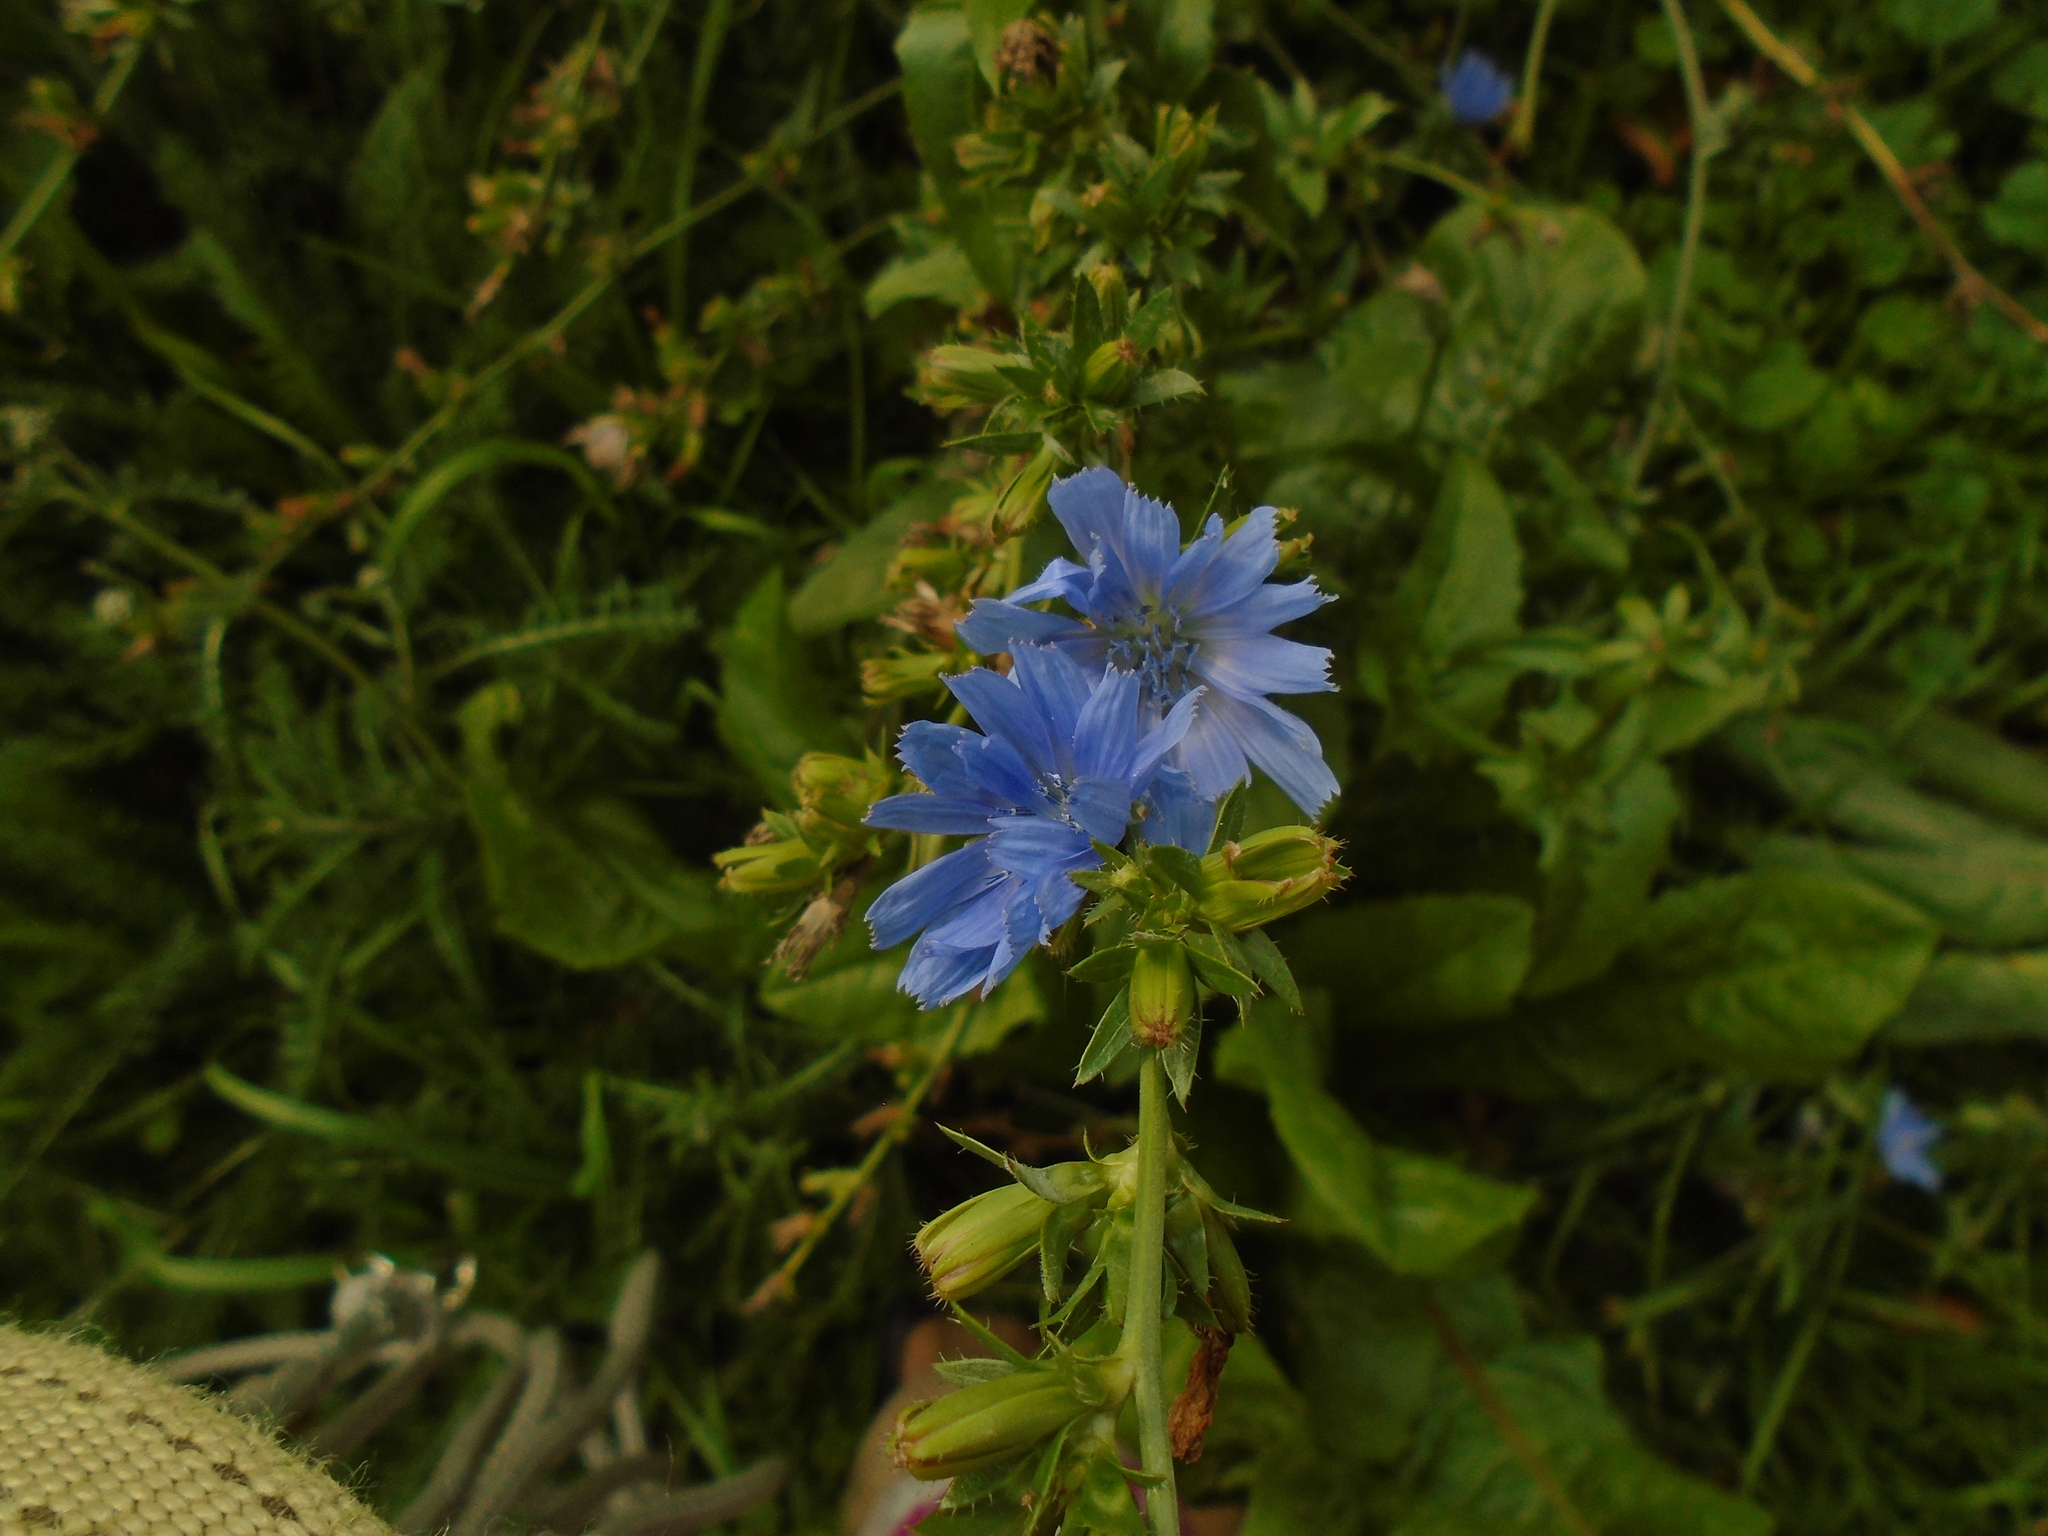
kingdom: Plantae
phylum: Tracheophyta
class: Magnoliopsida
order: Asterales
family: Asteraceae
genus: Cichorium
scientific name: Cichorium intybus
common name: Chicory
